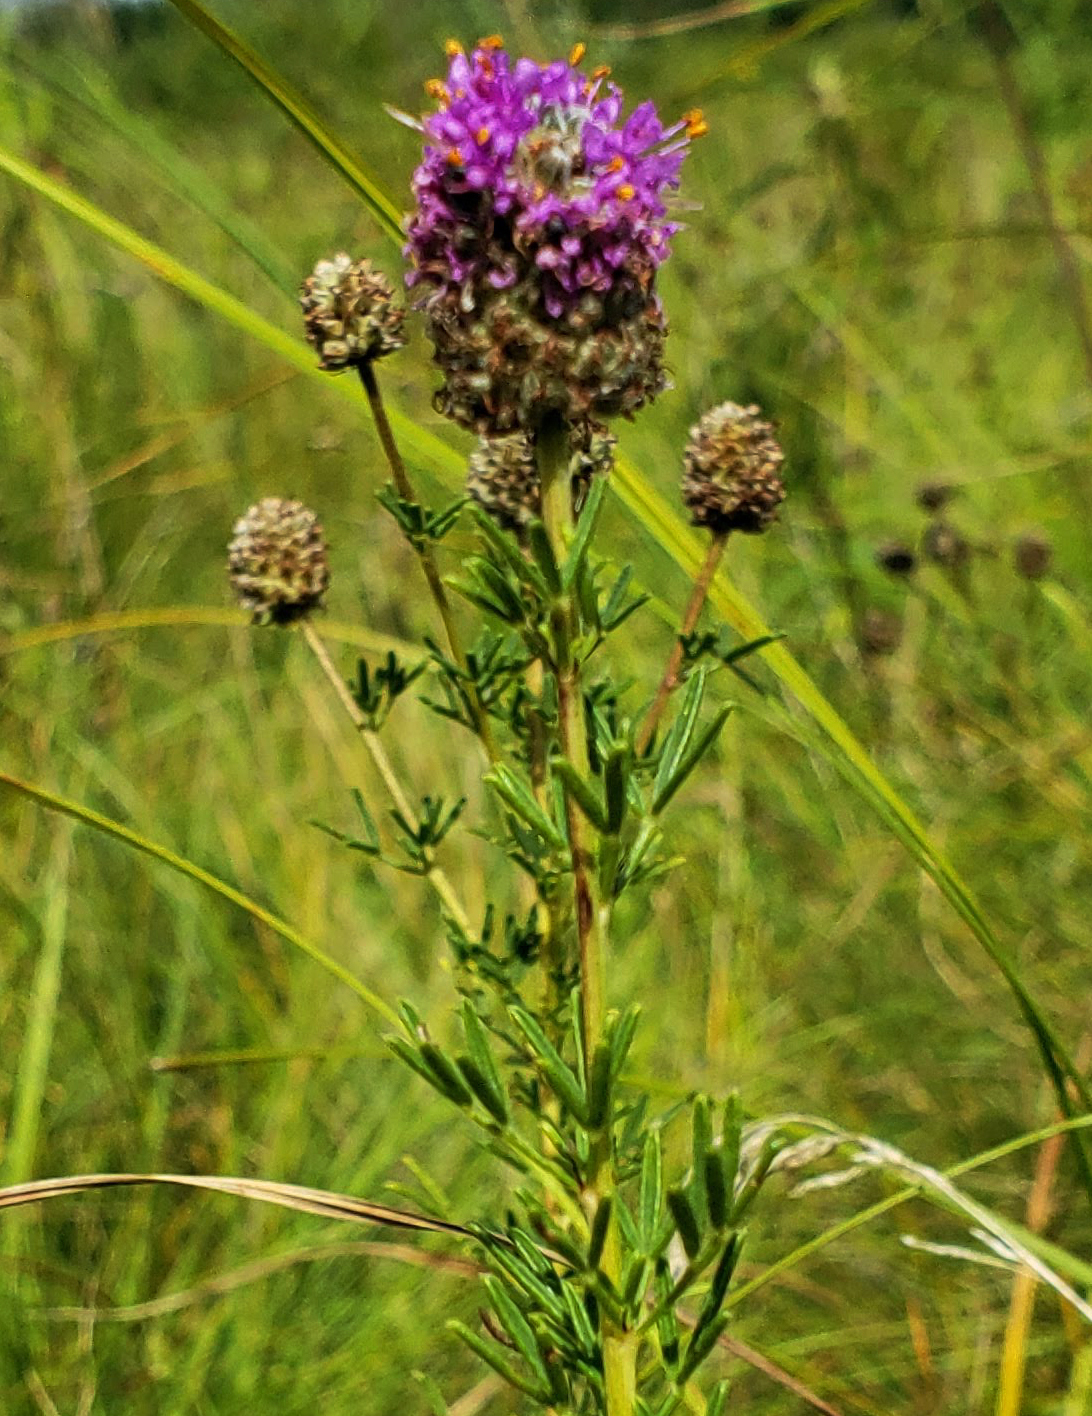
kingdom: Plantae
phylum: Tracheophyta
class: Magnoliopsida
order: Fabales
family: Fabaceae
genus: Dalea
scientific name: Dalea purpurea
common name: Purple prairie-clover
